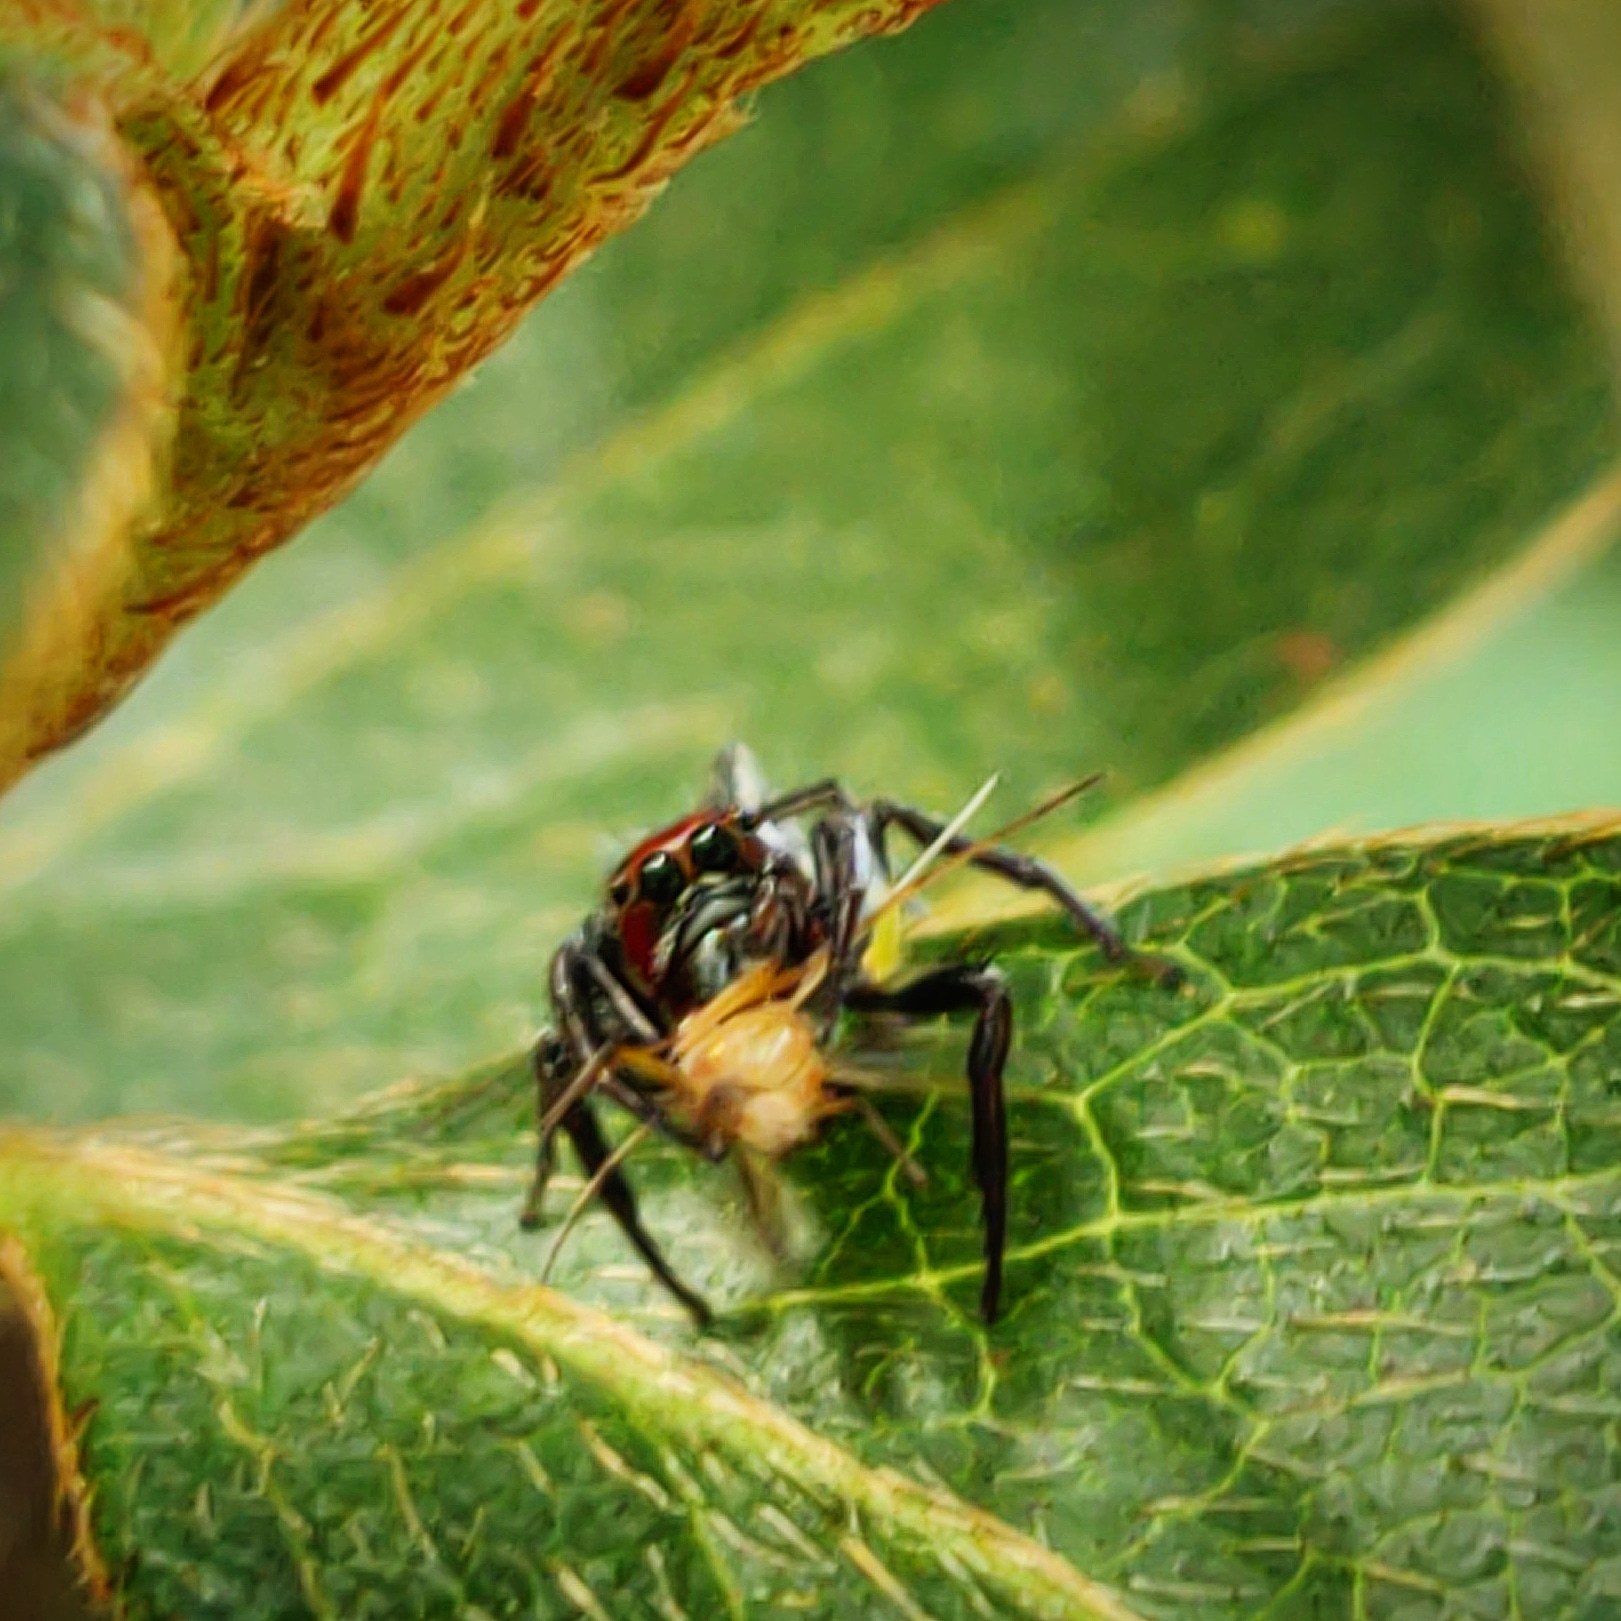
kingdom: Animalia
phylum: Arthropoda
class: Arachnida
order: Araneae
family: Salticidae
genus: Colonus
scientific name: Colonus sylvanus
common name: Jumping spiders
